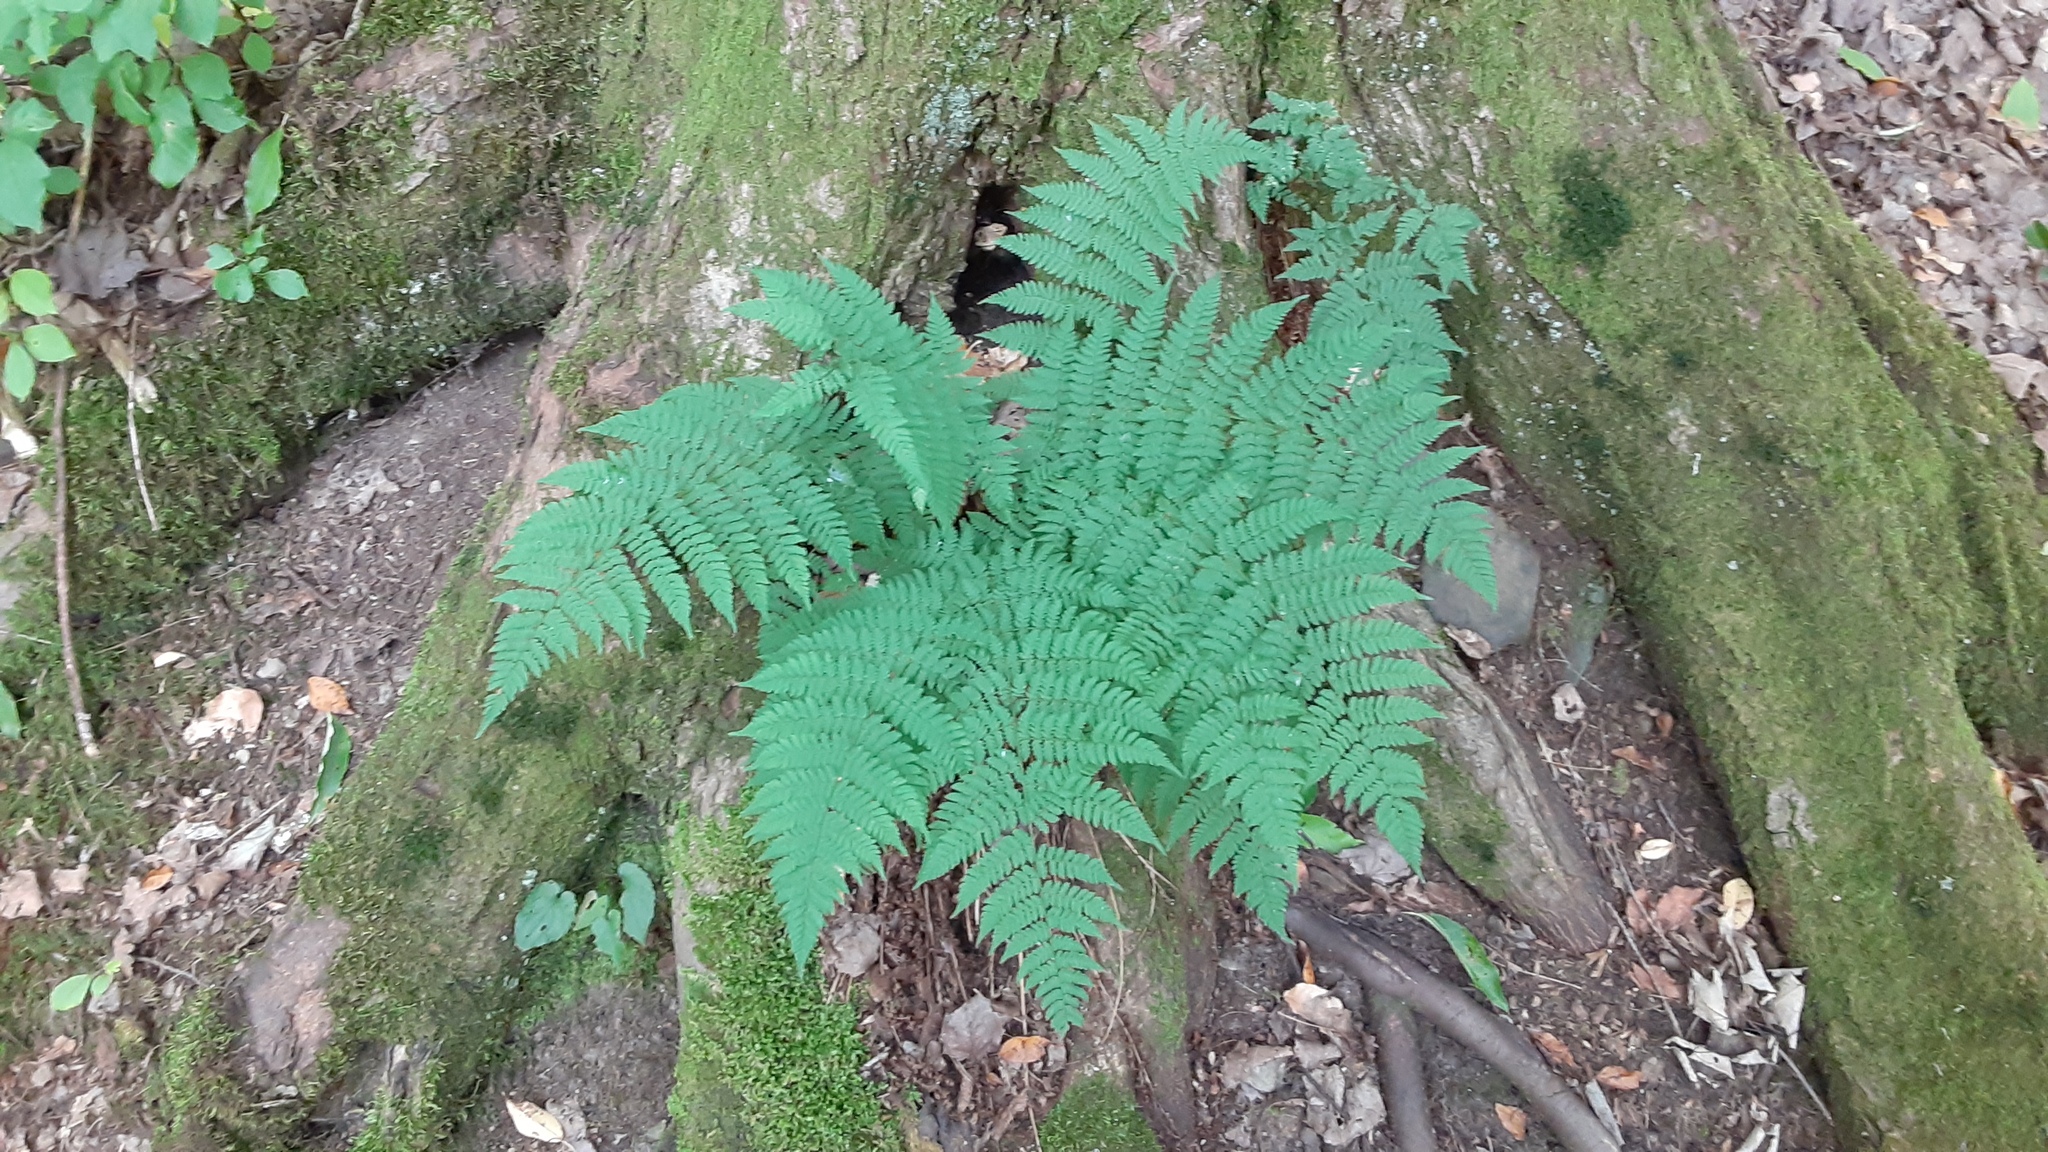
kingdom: Plantae
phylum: Tracheophyta
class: Polypodiopsida
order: Polypodiales
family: Dryopteridaceae
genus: Dryopteris
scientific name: Dryopteris intermedia
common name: Evergreen wood fern
